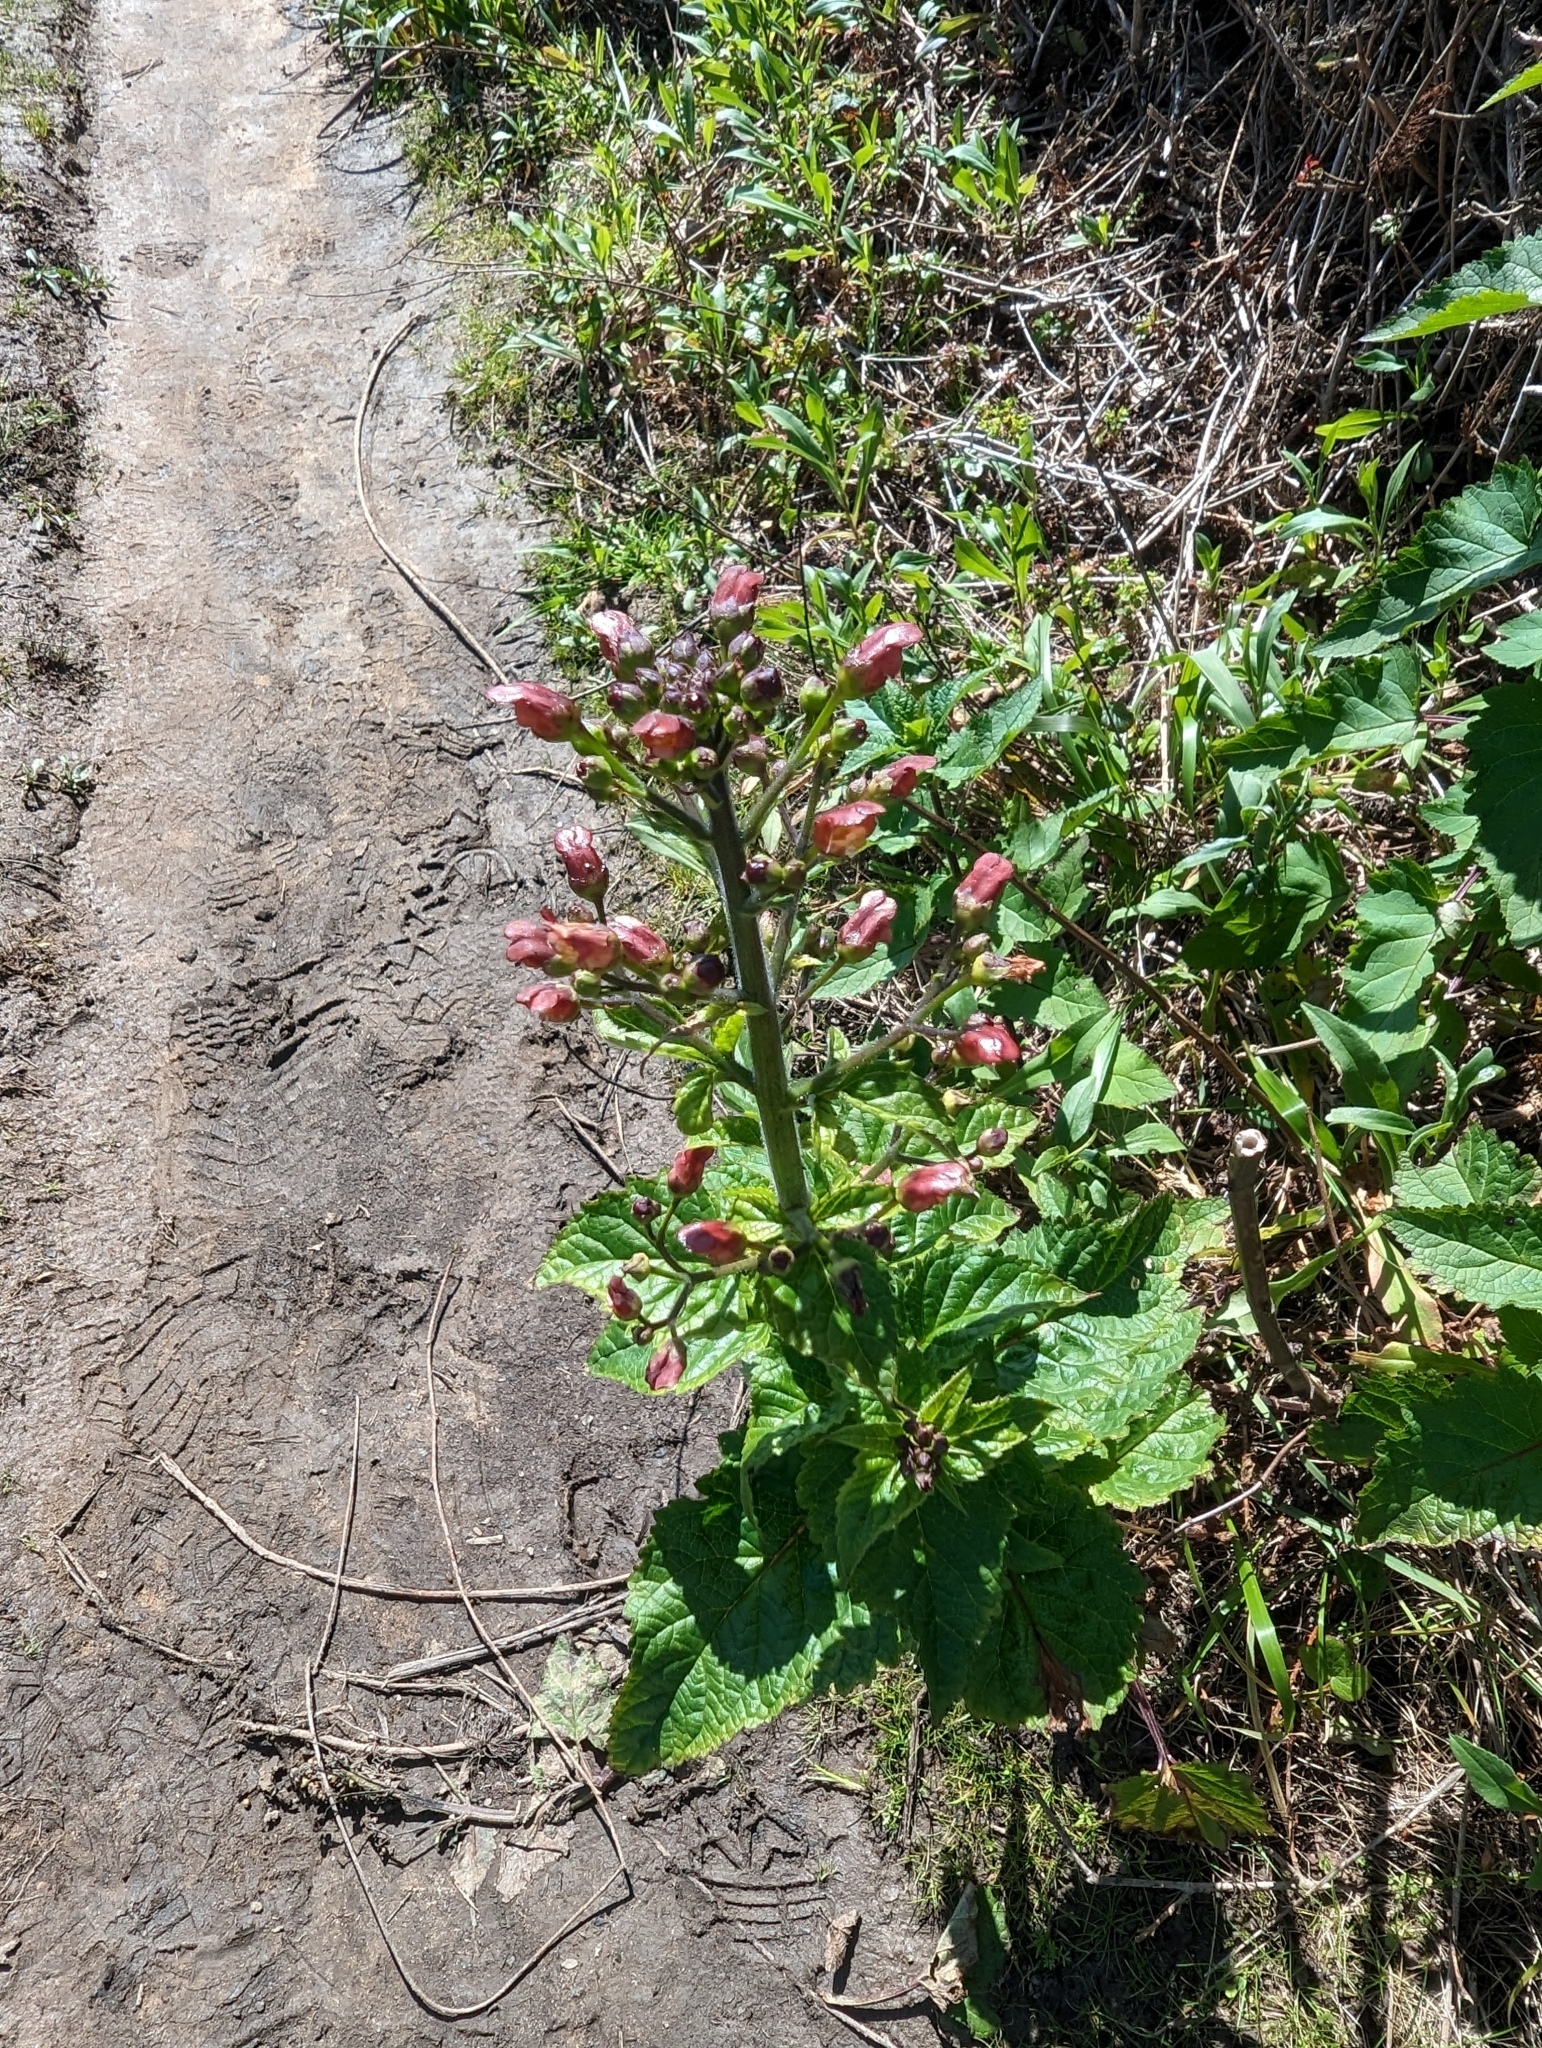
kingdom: Plantae
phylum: Tracheophyta
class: Magnoliopsida
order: Lamiales
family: Scrophulariaceae
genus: Scrophularia
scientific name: Scrophularia californica
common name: California figwort
